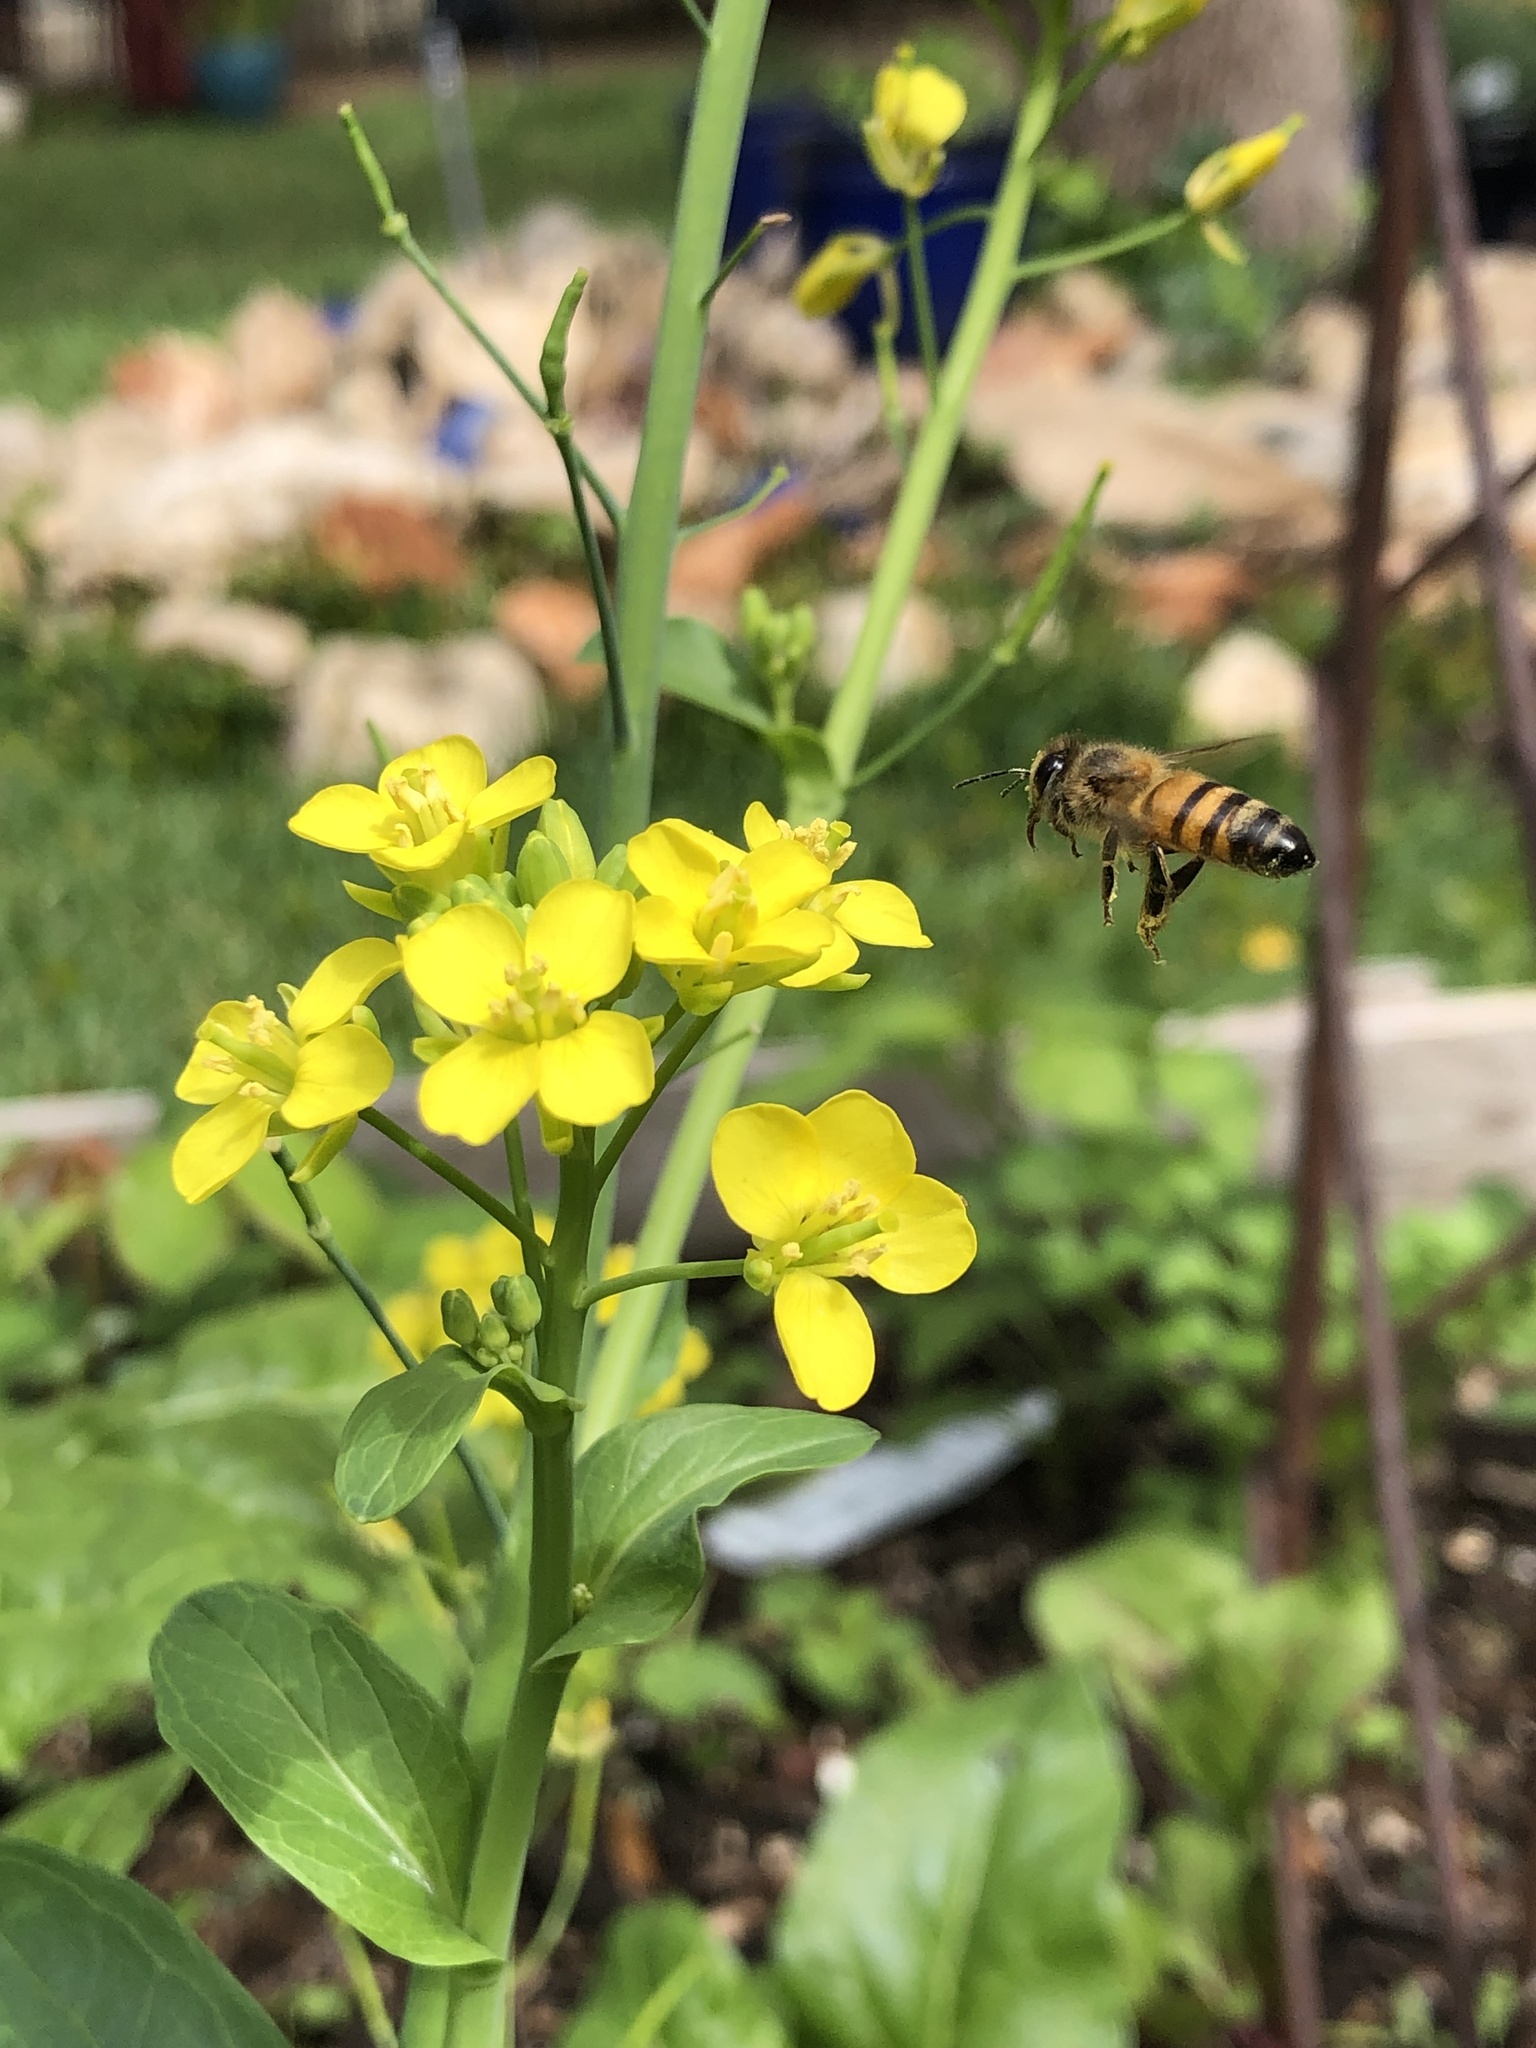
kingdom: Animalia
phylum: Arthropoda
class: Insecta
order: Hymenoptera
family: Apidae
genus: Apis
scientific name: Apis mellifera
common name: Honey bee
